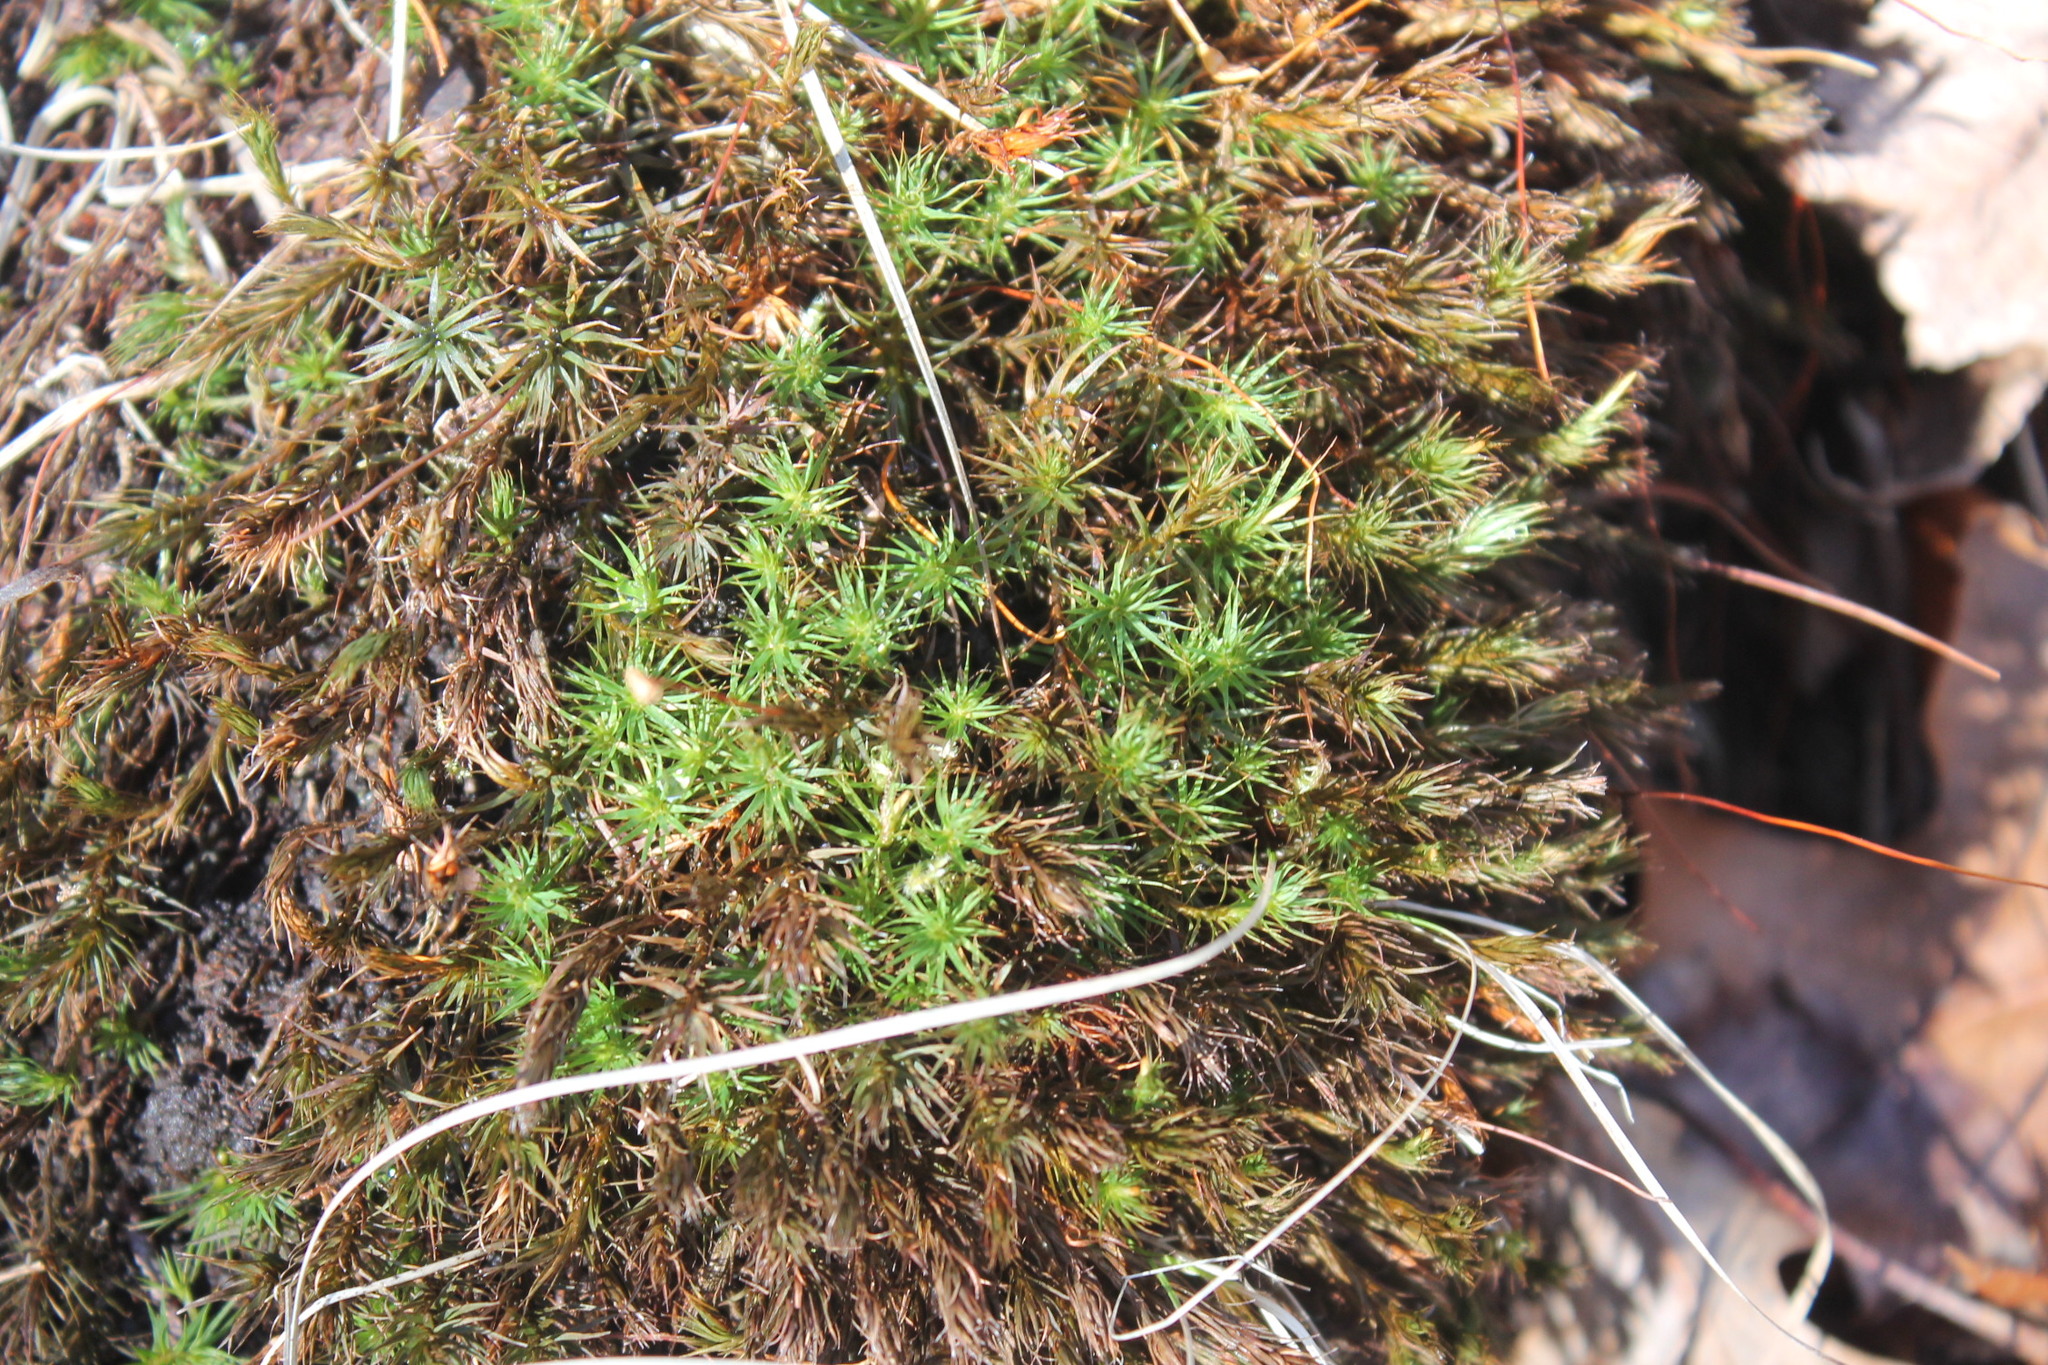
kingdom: Plantae
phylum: Bryophyta
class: Polytrichopsida
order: Polytrichales
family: Polytrichaceae
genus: Polytrichum
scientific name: Polytrichum ohioense
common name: Ohio polytrichum moss
